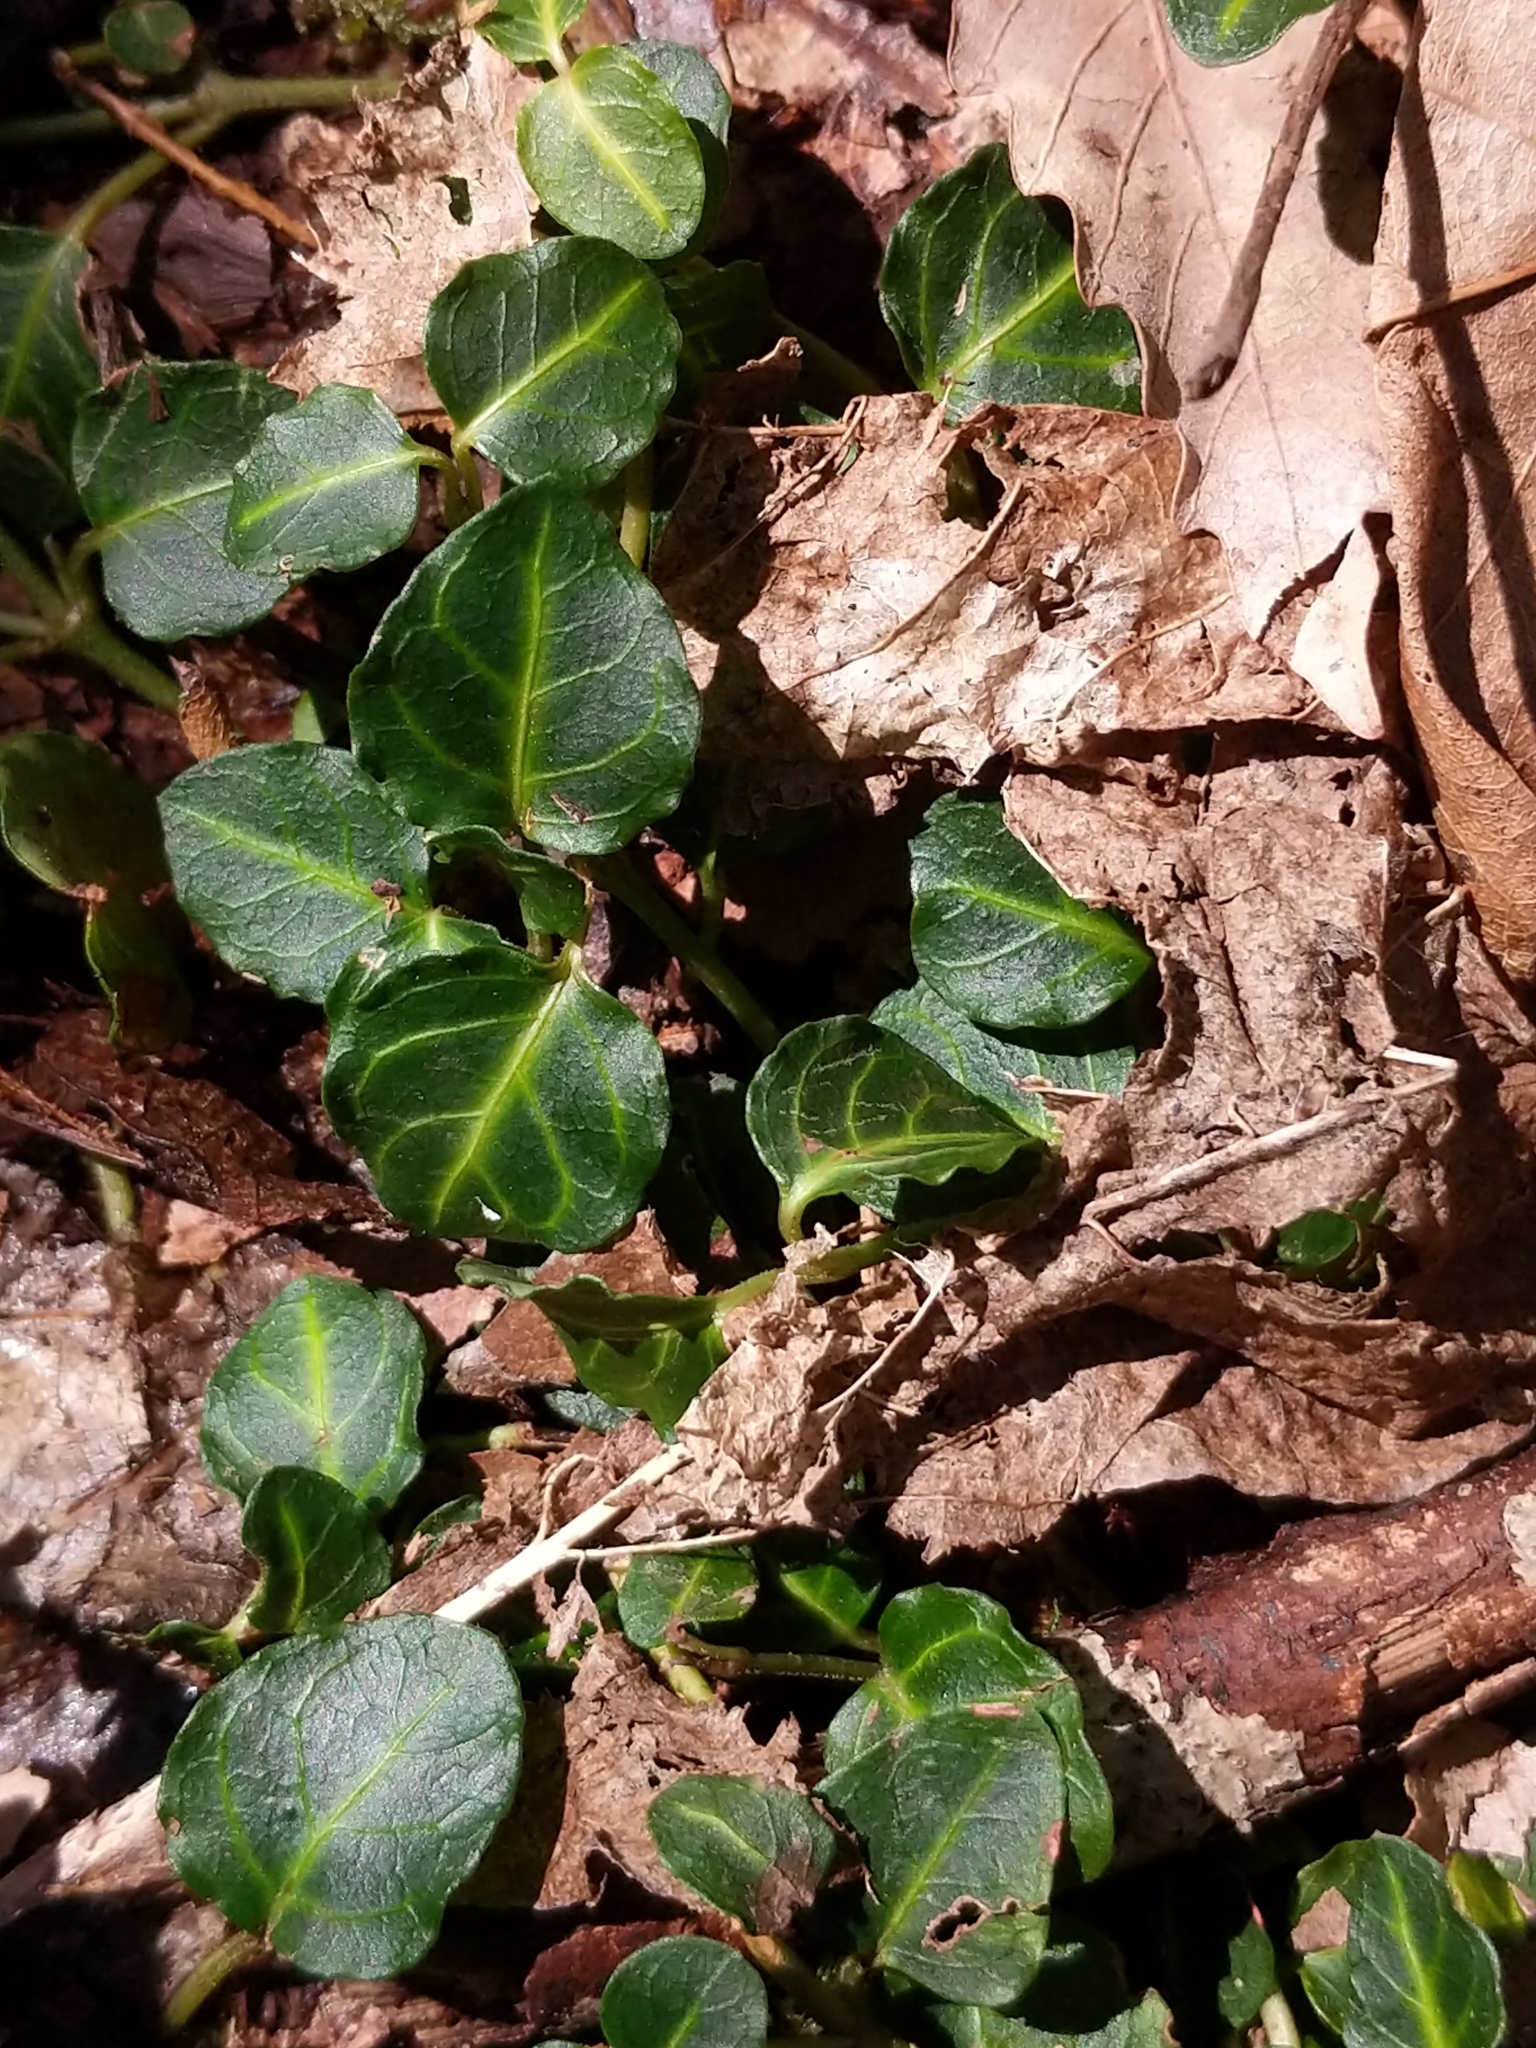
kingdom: Plantae
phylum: Tracheophyta
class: Magnoliopsida
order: Gentianales
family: Rubiaceae
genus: Mitchella
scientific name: Mitchella repens
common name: Partridge-berry
